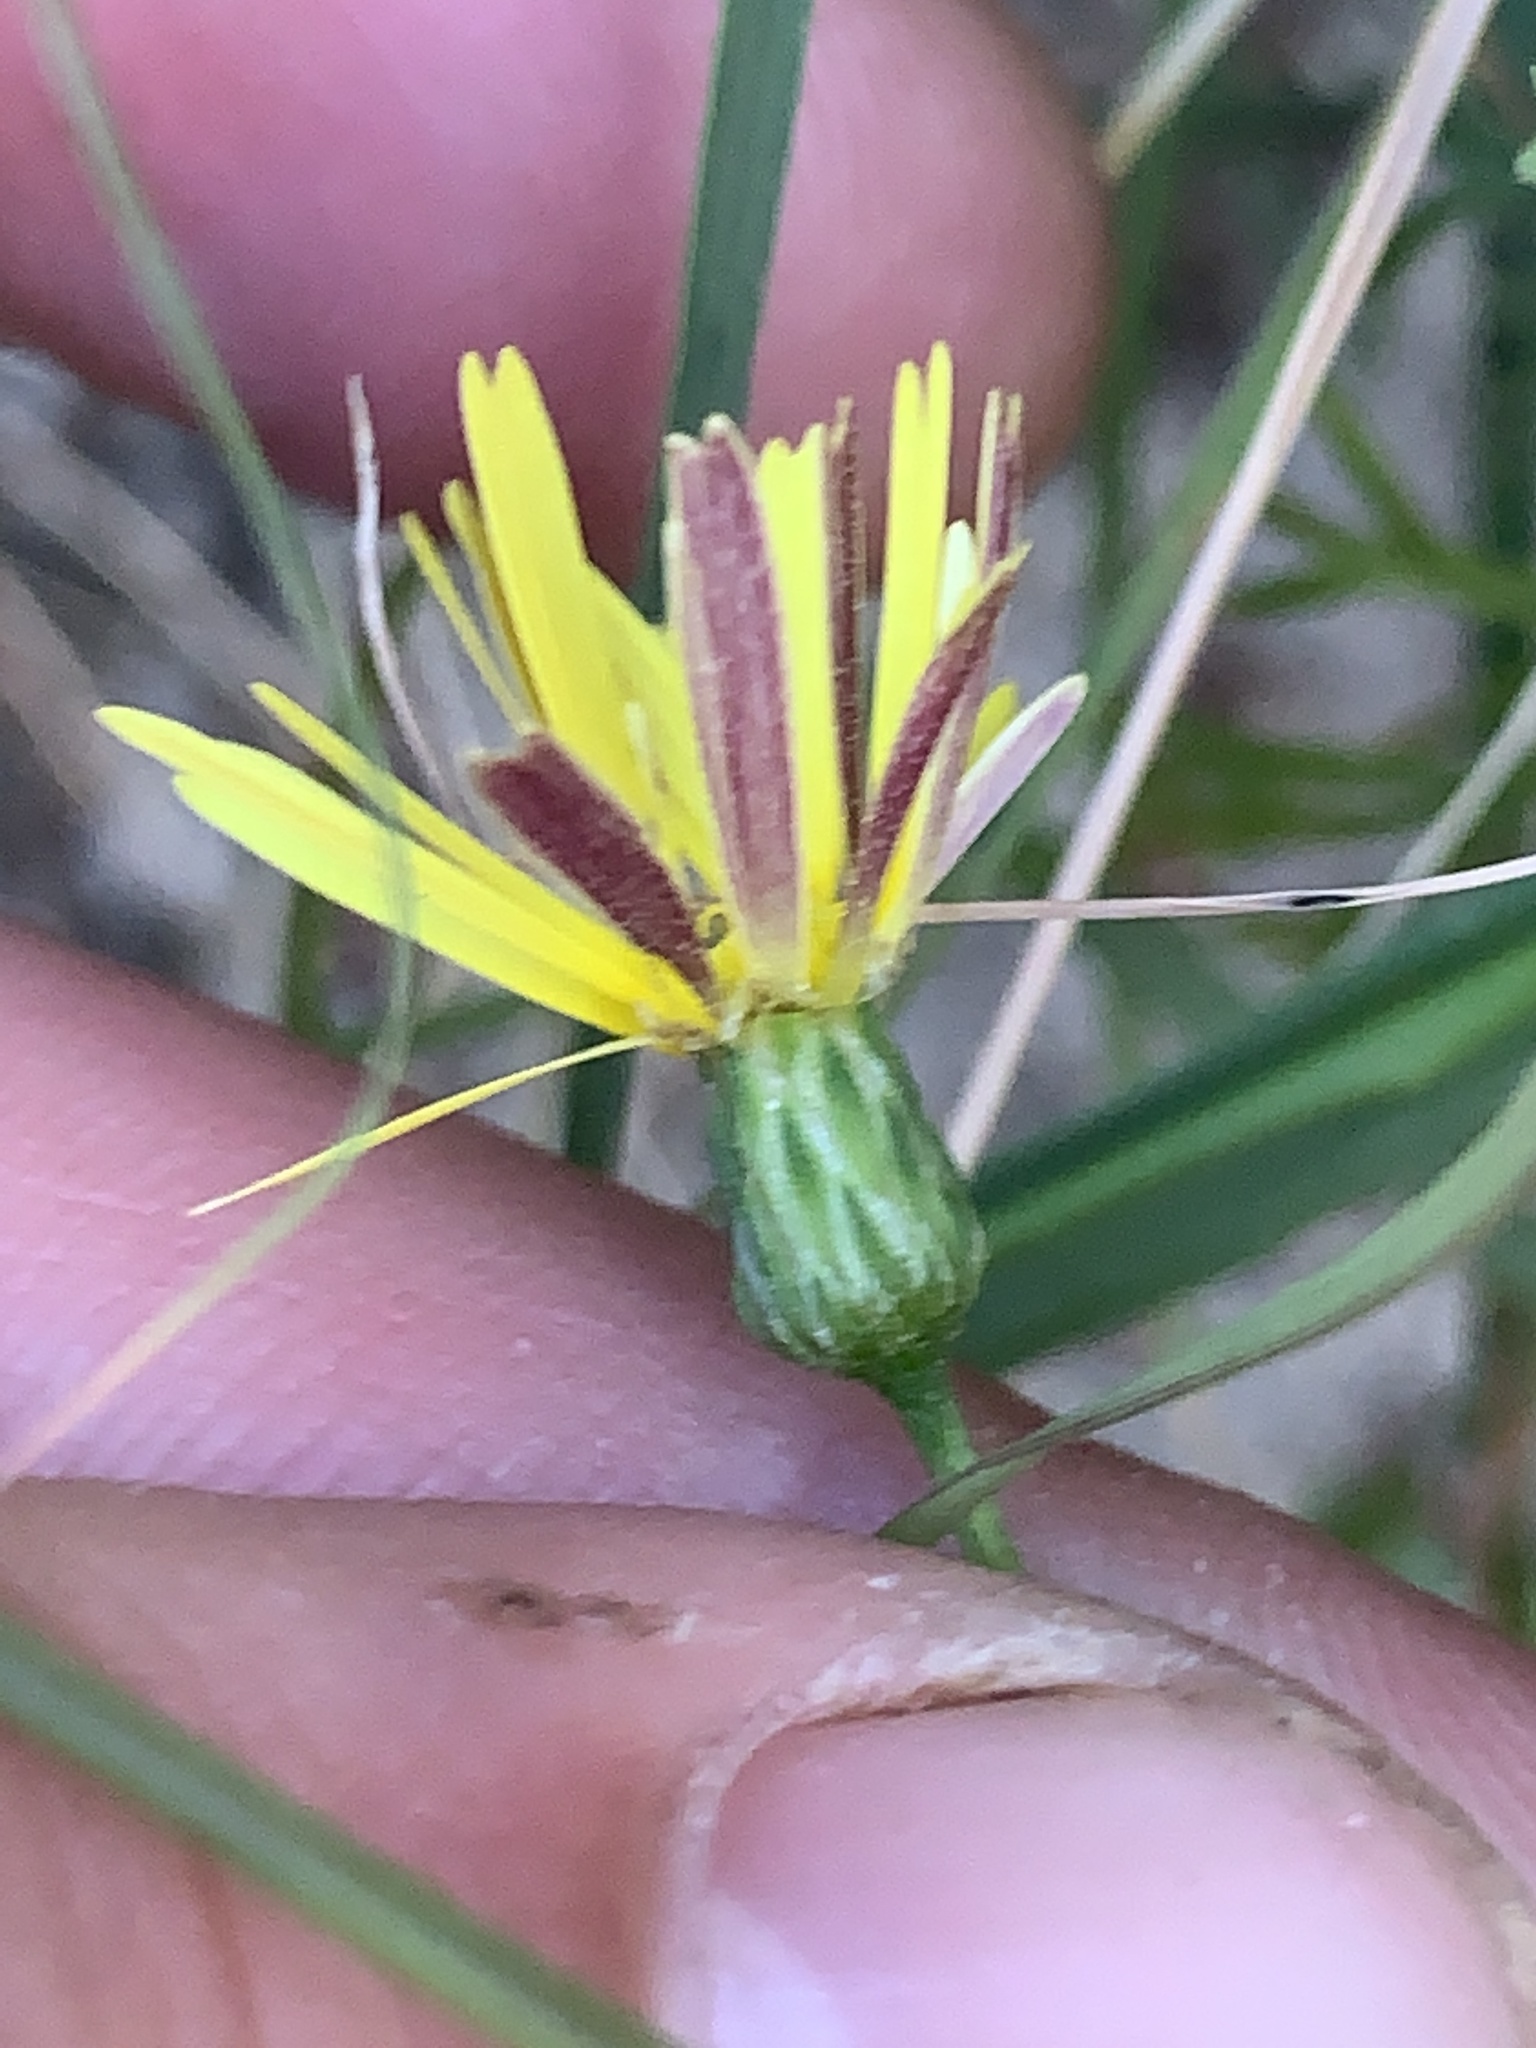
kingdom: Plantae
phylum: Tracheophyta
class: Magnoliopsida
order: Asterales
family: Asteraceae
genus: Ursinia
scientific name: Ursinia paleacea
